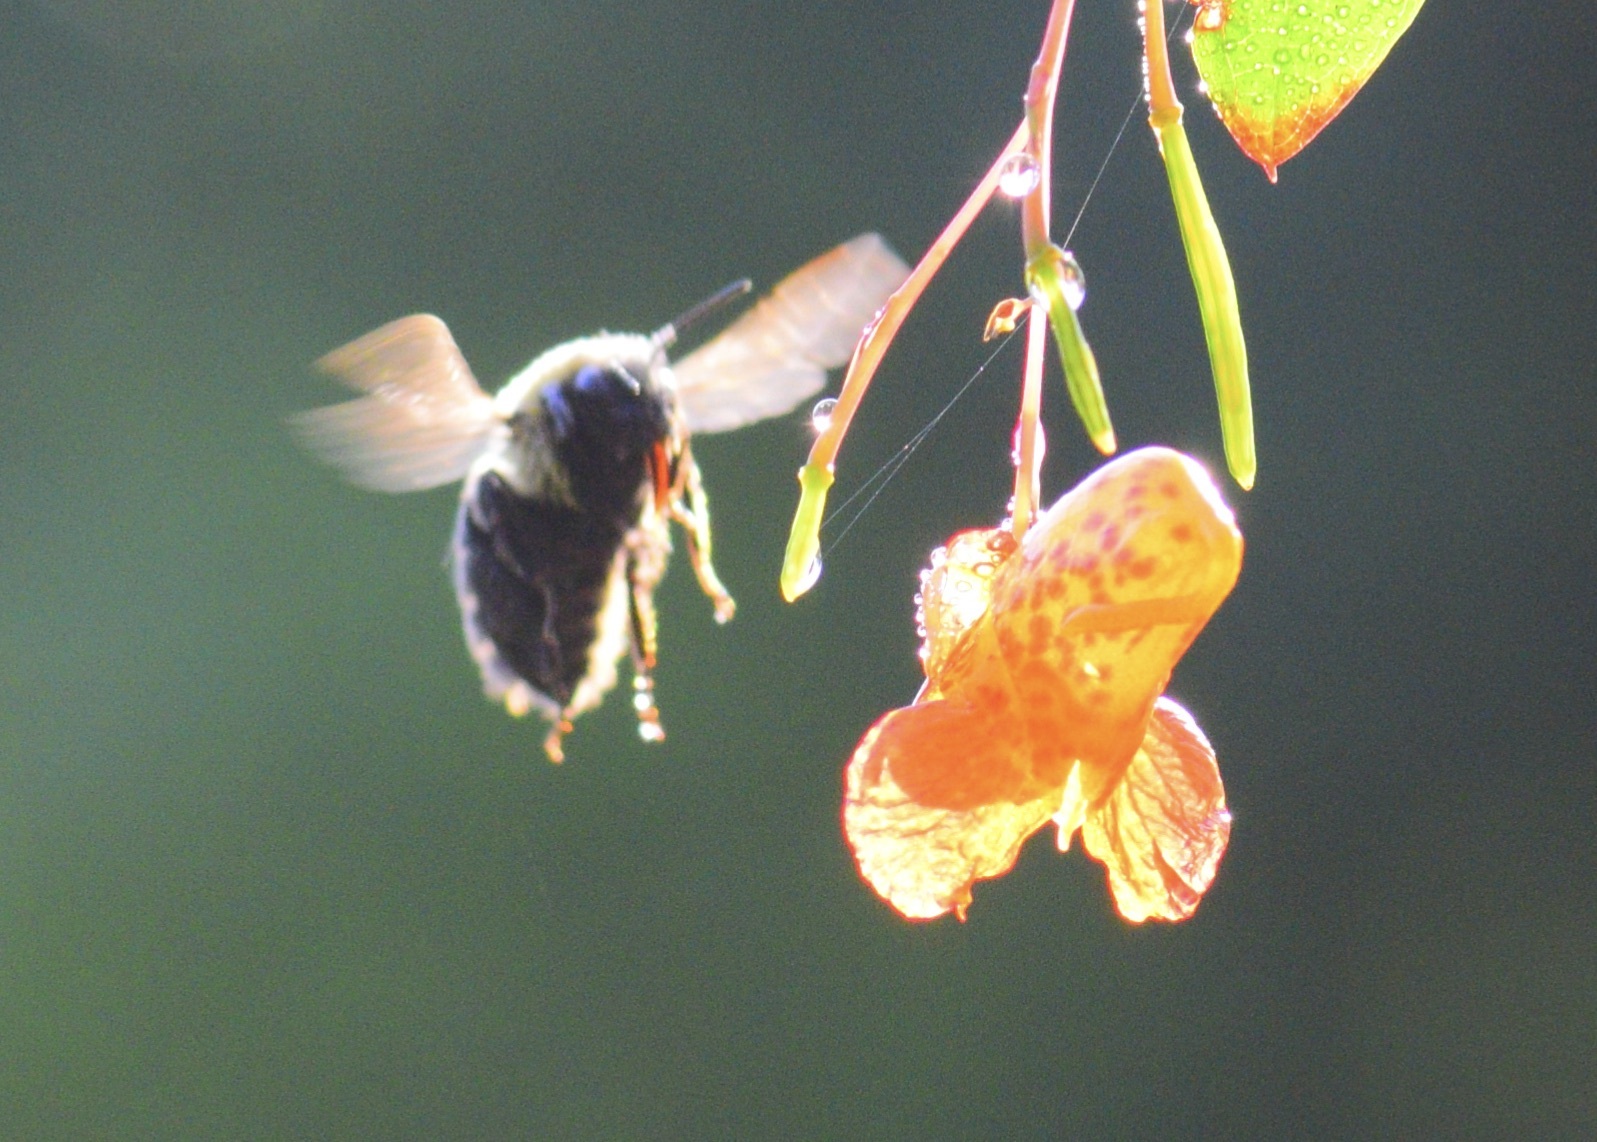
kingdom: Animalia
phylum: Arthropoda
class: Insecta
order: Hymenoptera
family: Apidae
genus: Bombus
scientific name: Bombus impatiens
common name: Common eastern bumble bee
